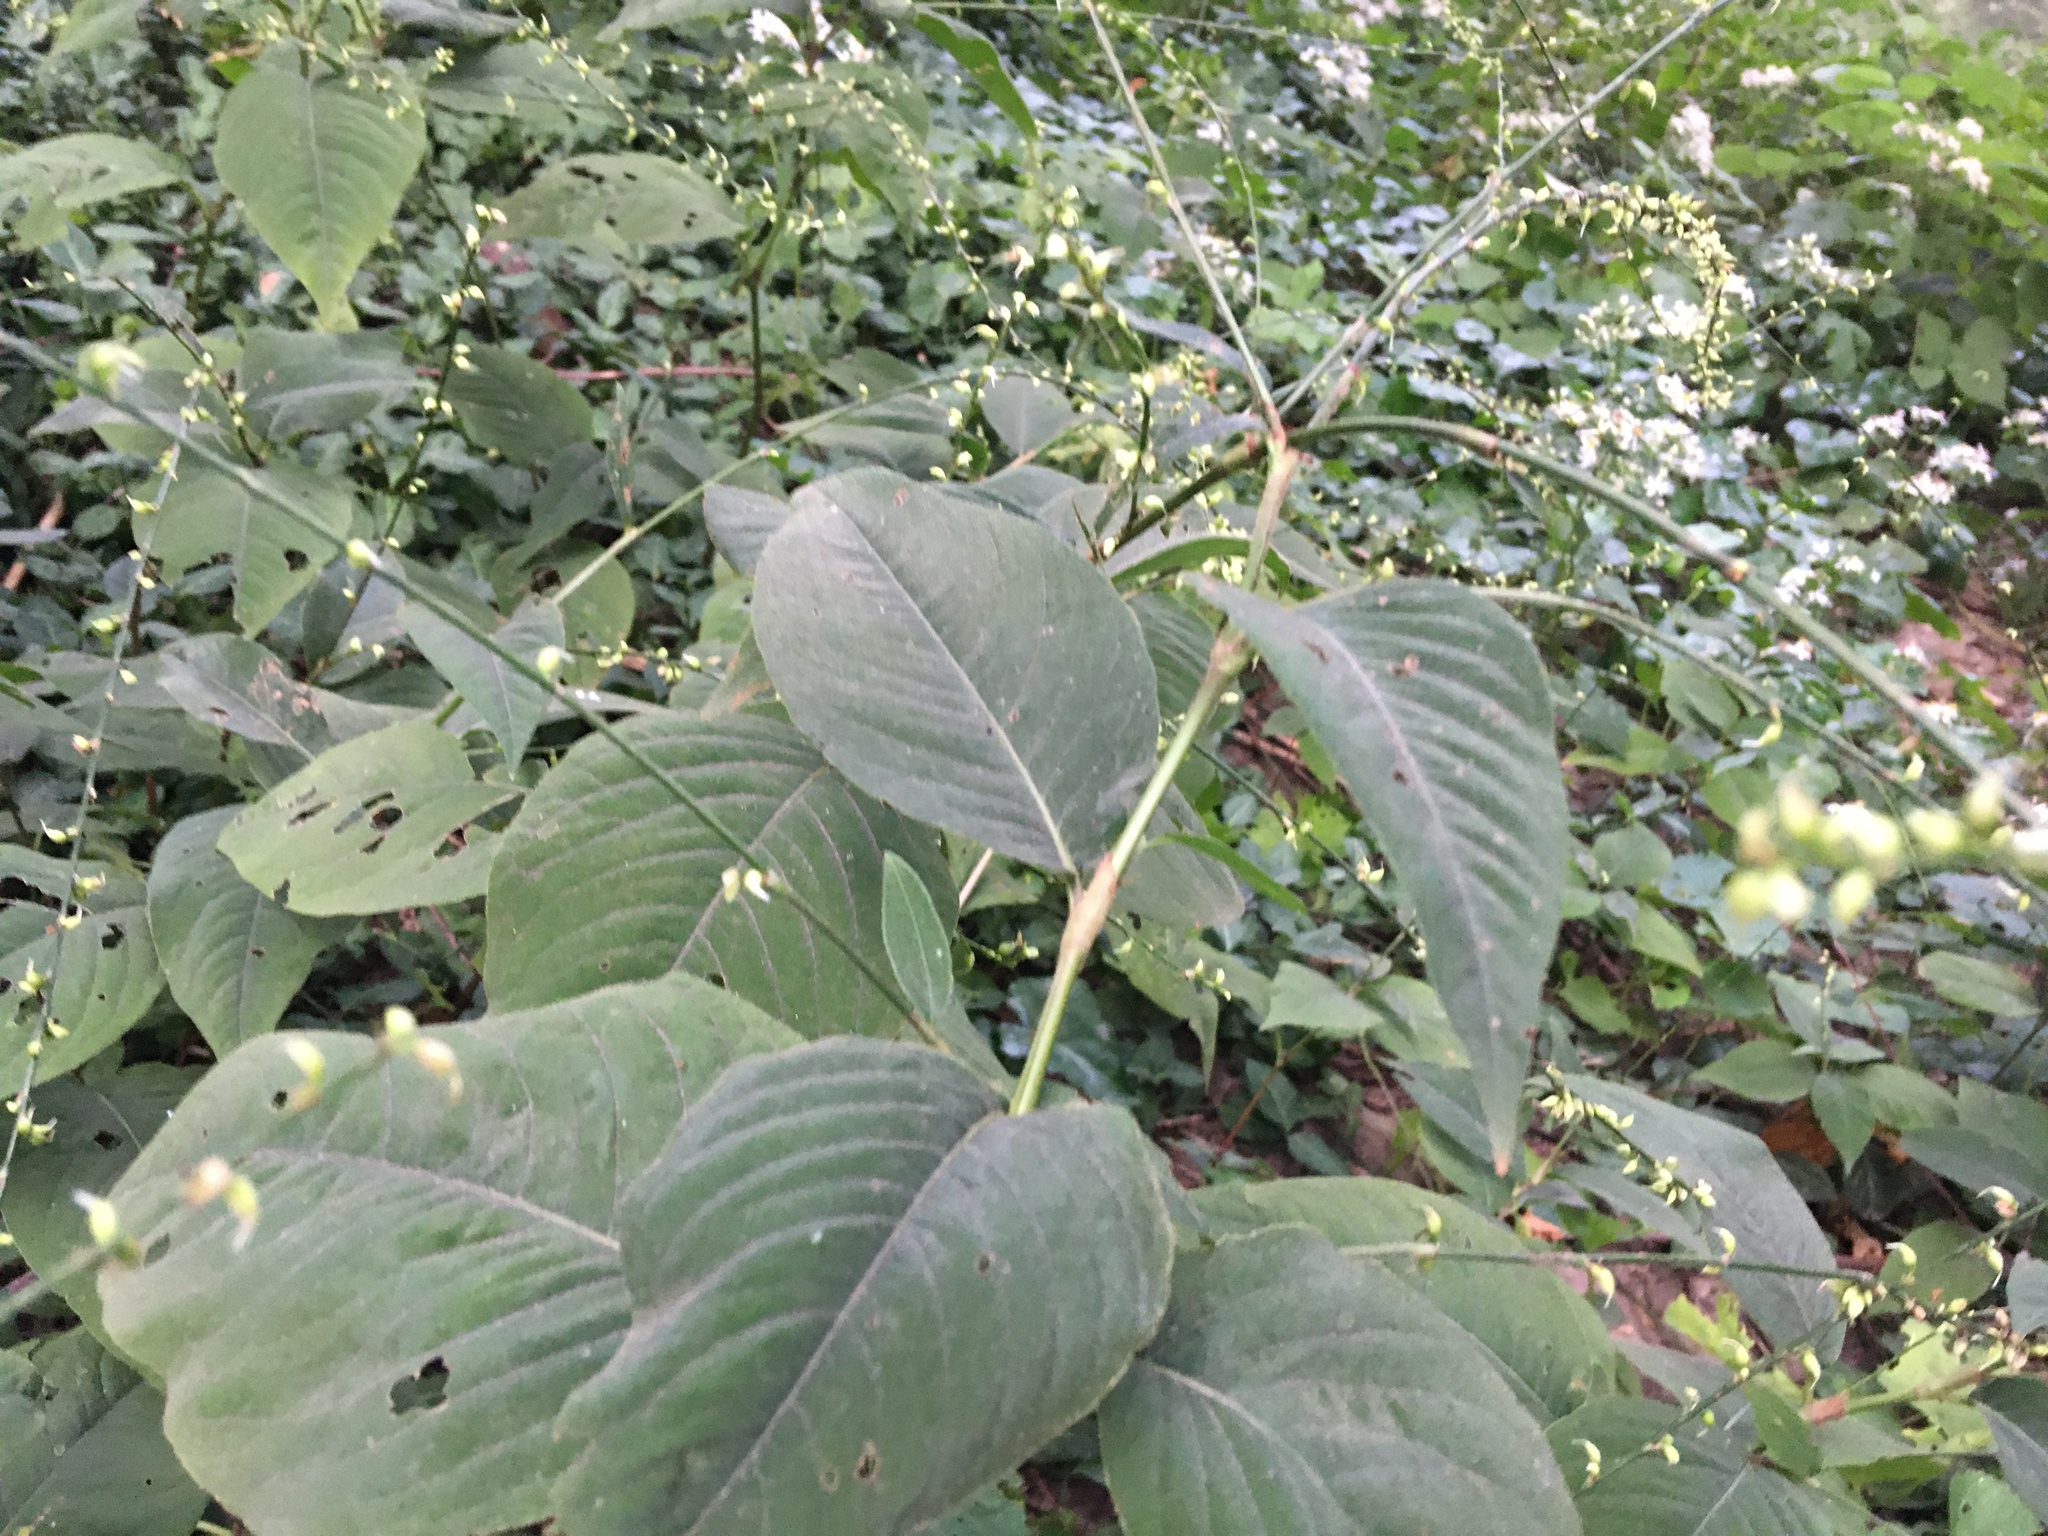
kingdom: Plantae
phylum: Tracheophyta
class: Magnoliopsida
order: Caryophyllales
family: Polygonaceae
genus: Persicaria
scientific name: Persicaria virginiana
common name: Jumpseed
